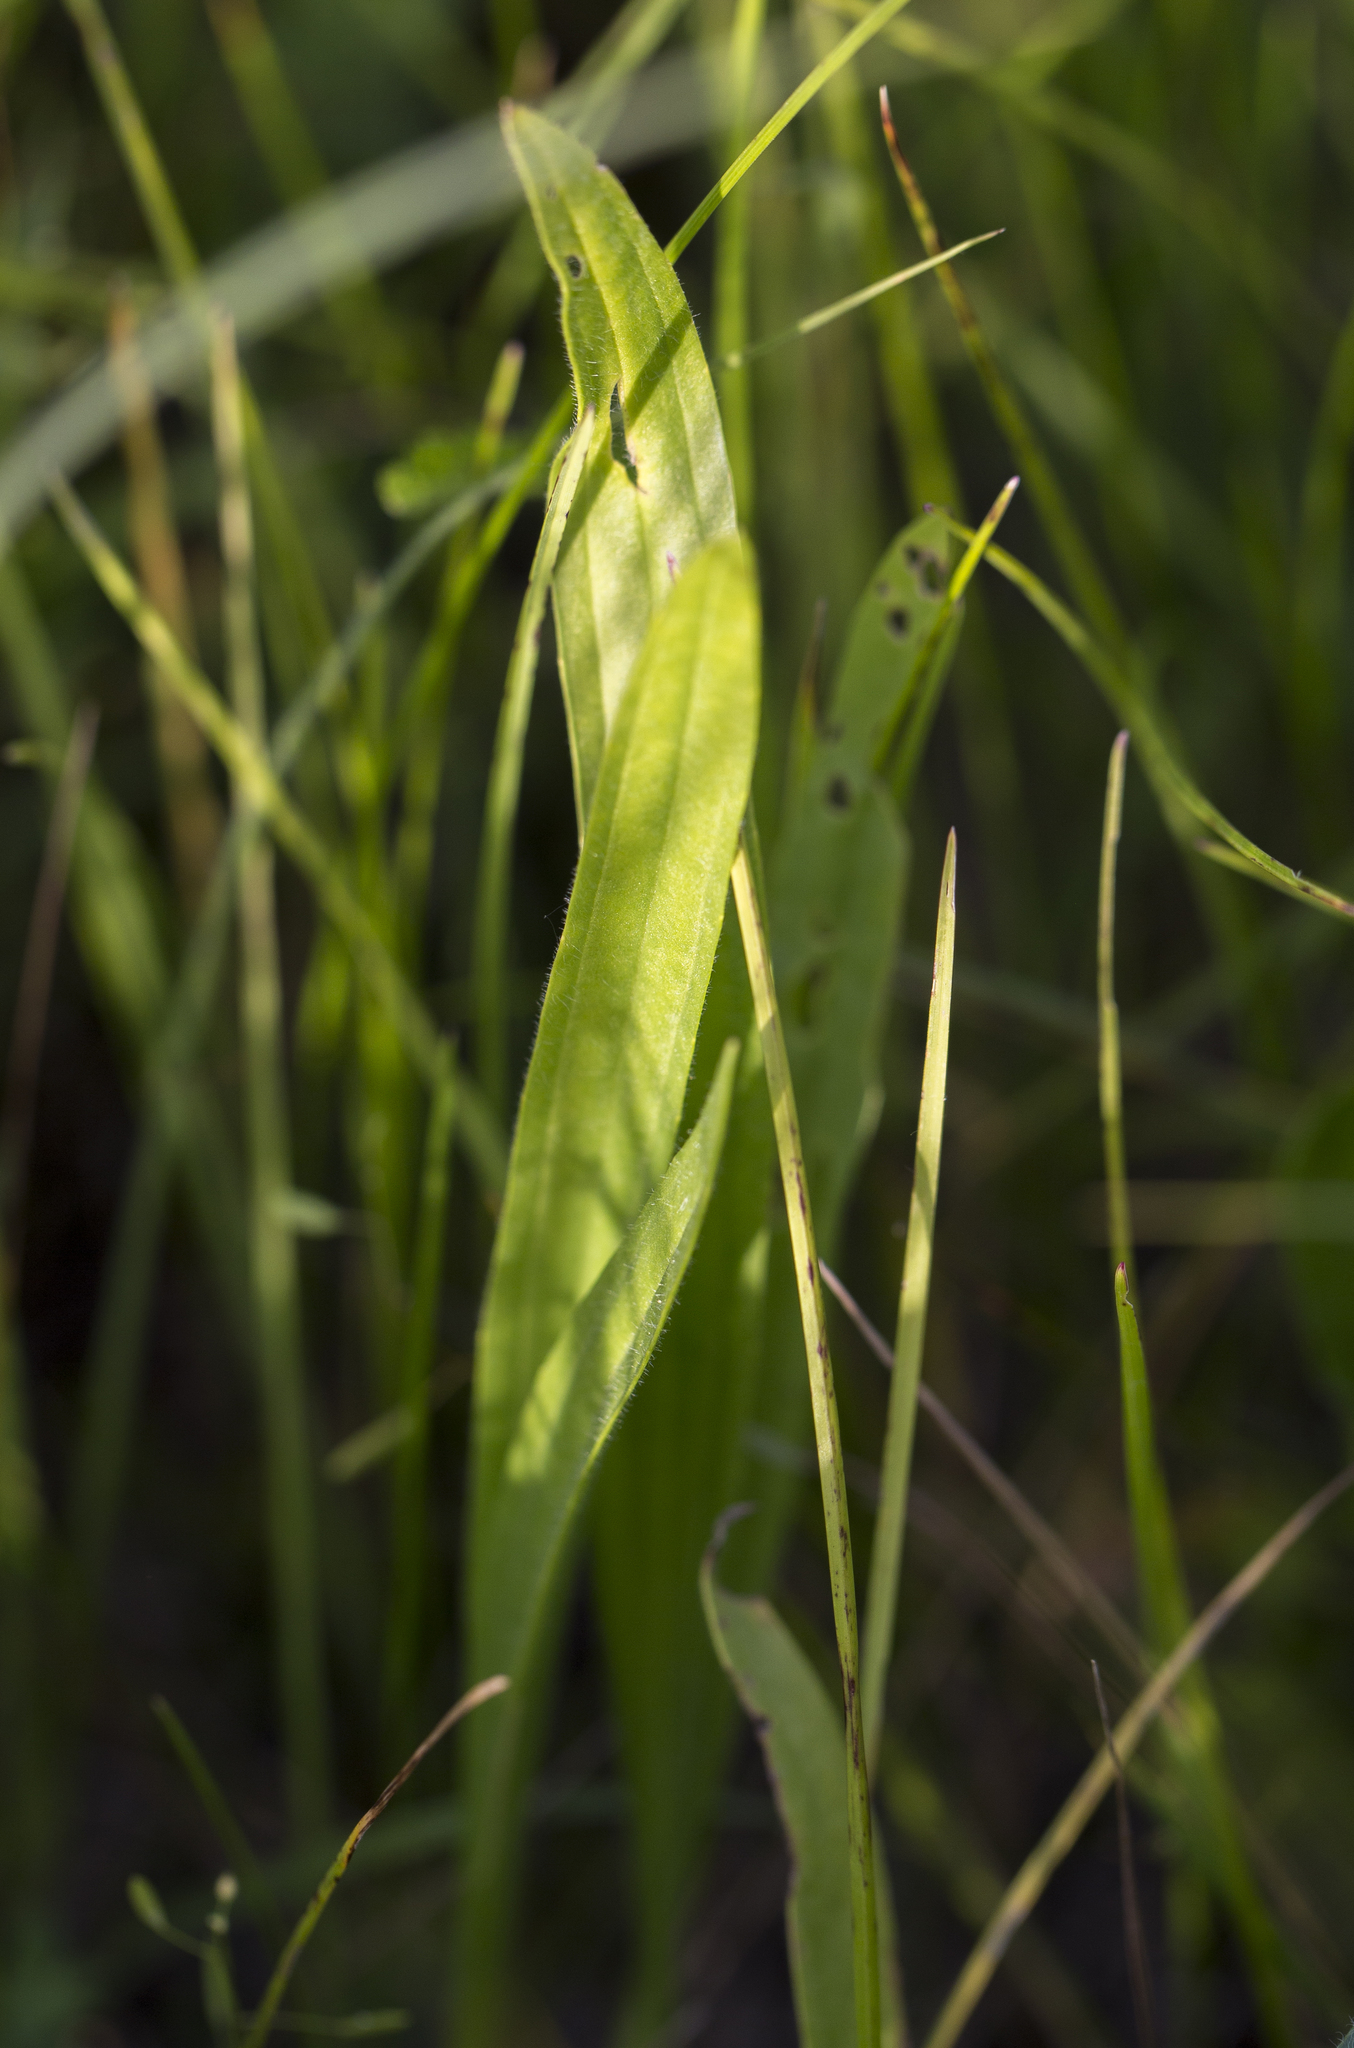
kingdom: Plantae
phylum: Tracheophyta
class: Magnoliopsida
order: Lamiales
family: Plantaginaceae
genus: Plantago
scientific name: Plantago lanceolata
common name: Ribwort plantain
